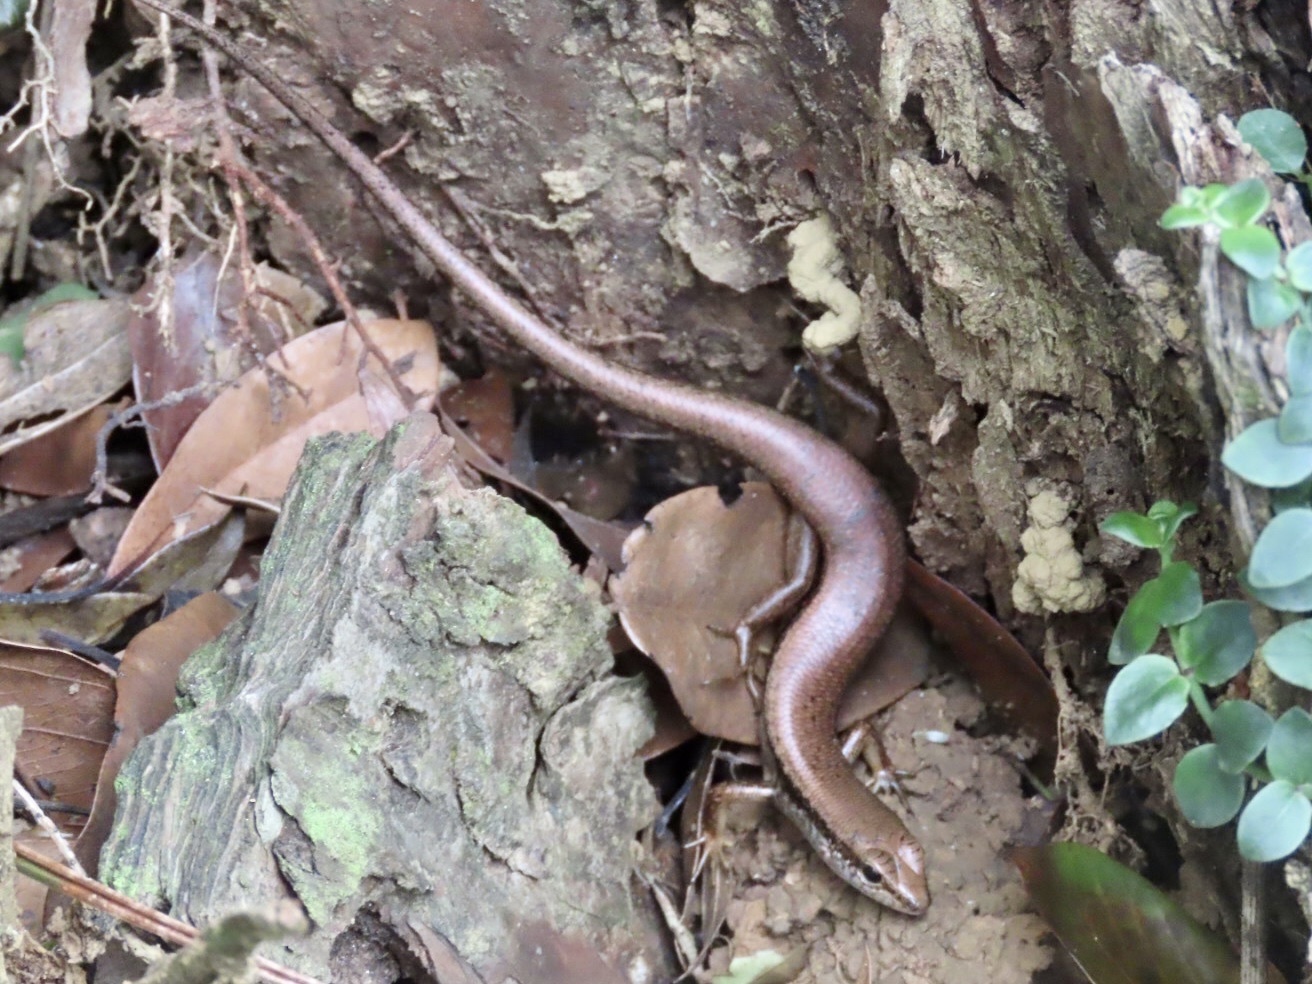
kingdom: Animalia
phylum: Chordata
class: Squamata
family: Scincidae
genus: Sphenomorphus
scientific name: Sphenomorphus indicus
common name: Himalayan forest skink
